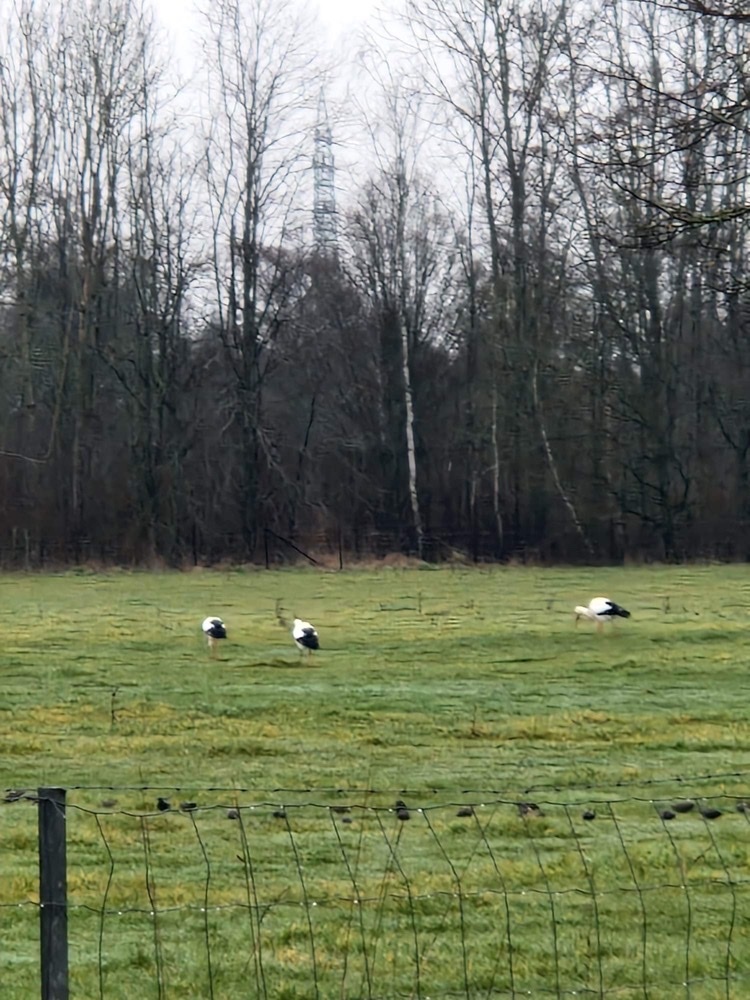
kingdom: Animalia
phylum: Chordata
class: Aves
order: Ciconiiformes
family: Ciconiidae
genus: Ciconia
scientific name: Ciconia ciconia
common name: White stork
